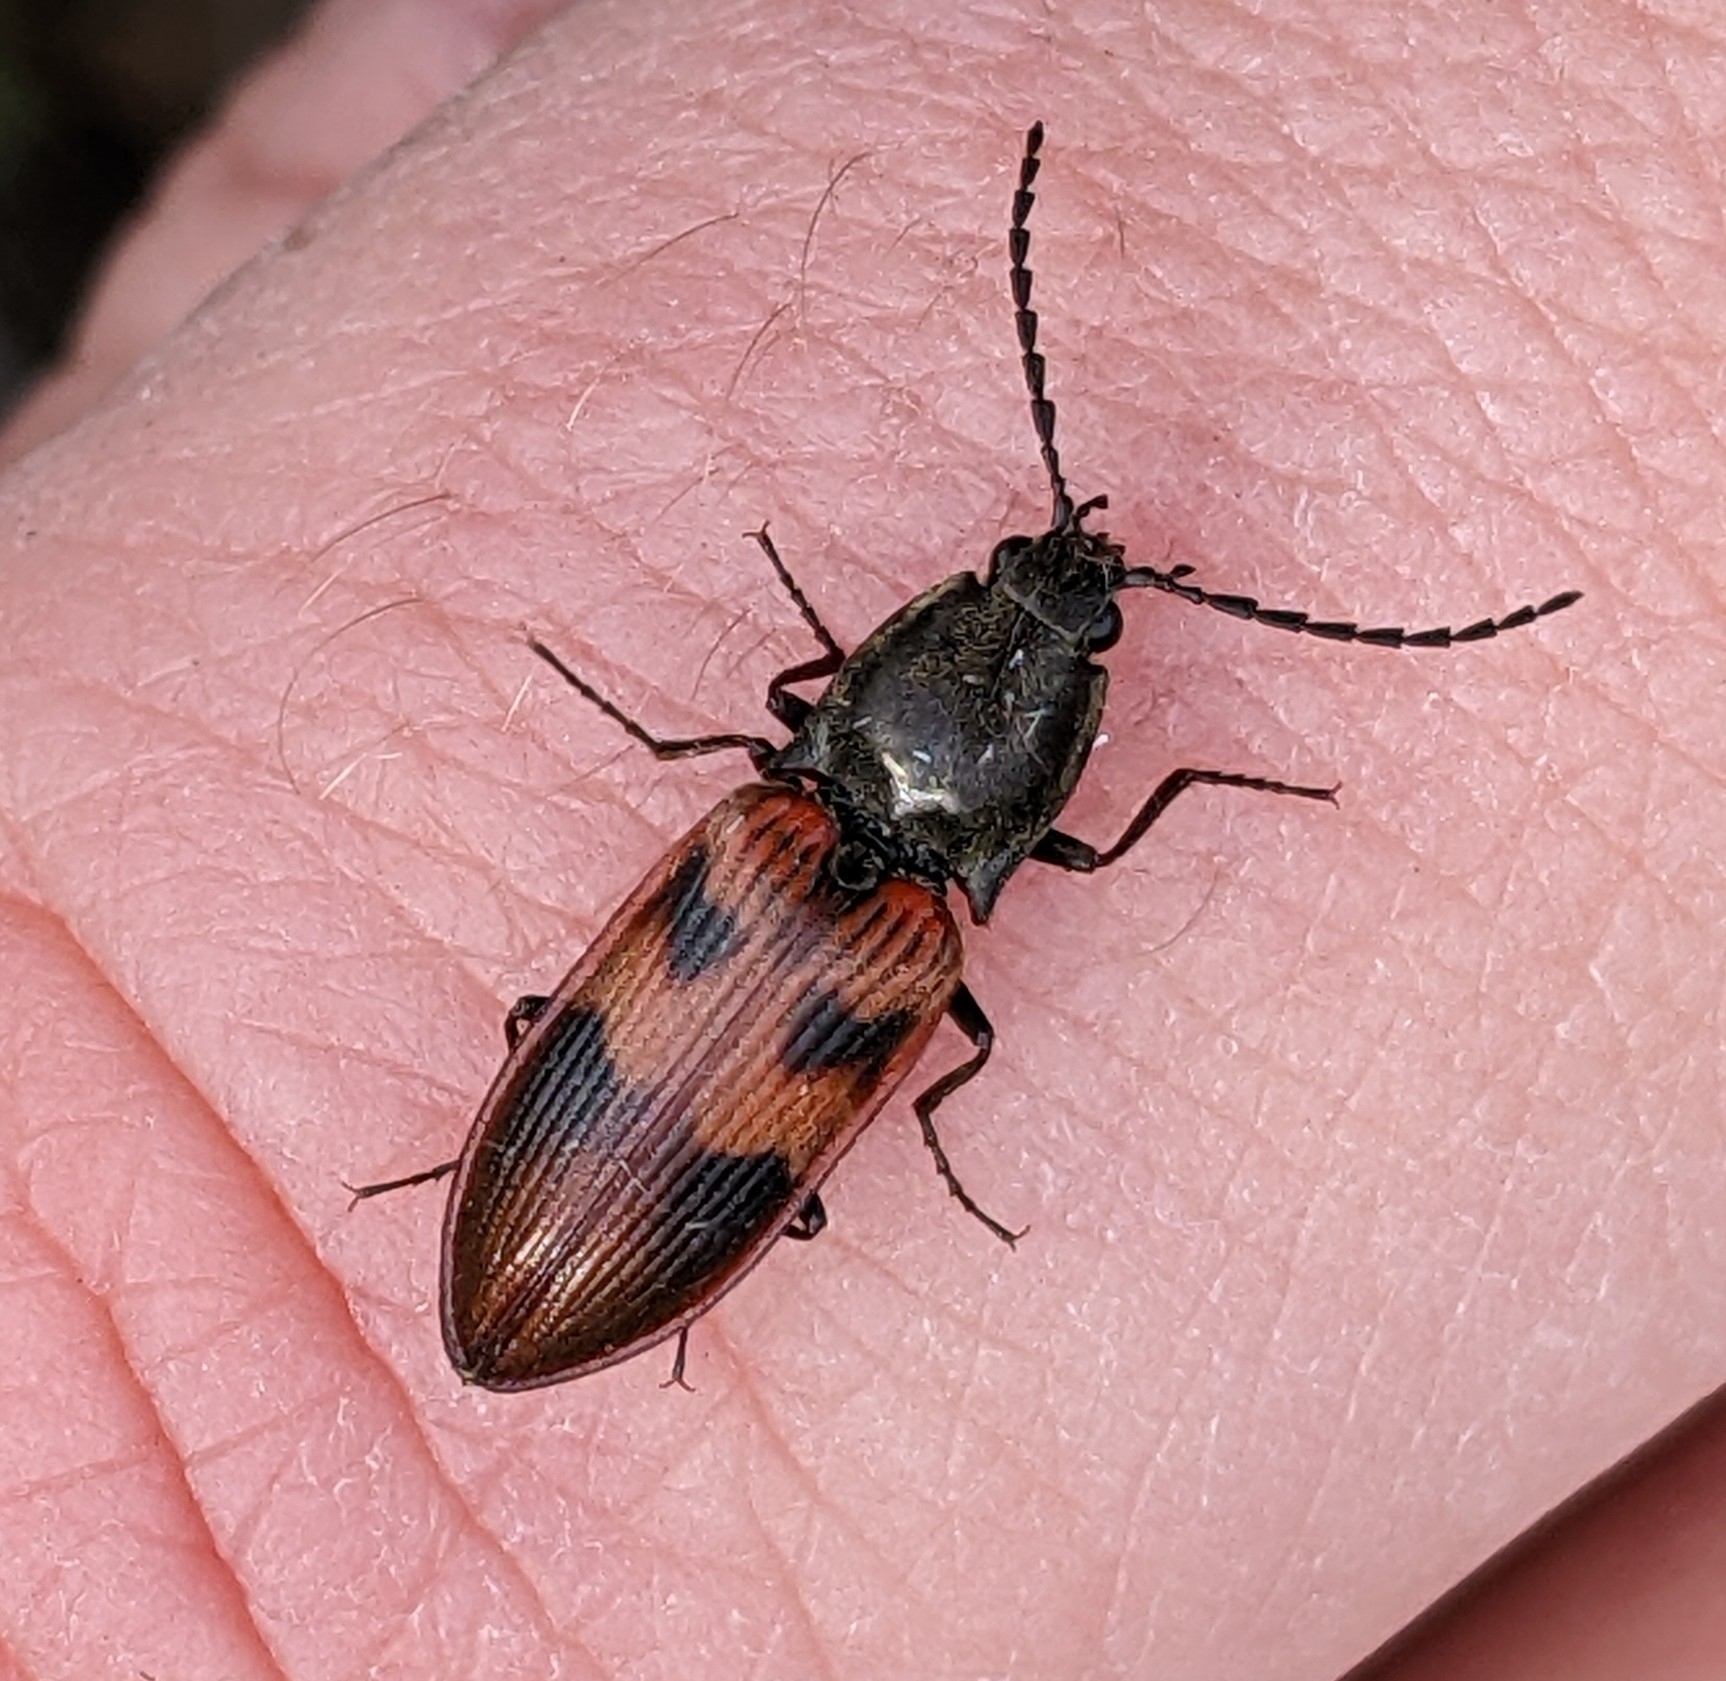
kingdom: Animalia
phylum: Arthropoda
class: Insecta
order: Coleoptera
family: Elateridae
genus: Stropenron
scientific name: Stropenron nigricollis
